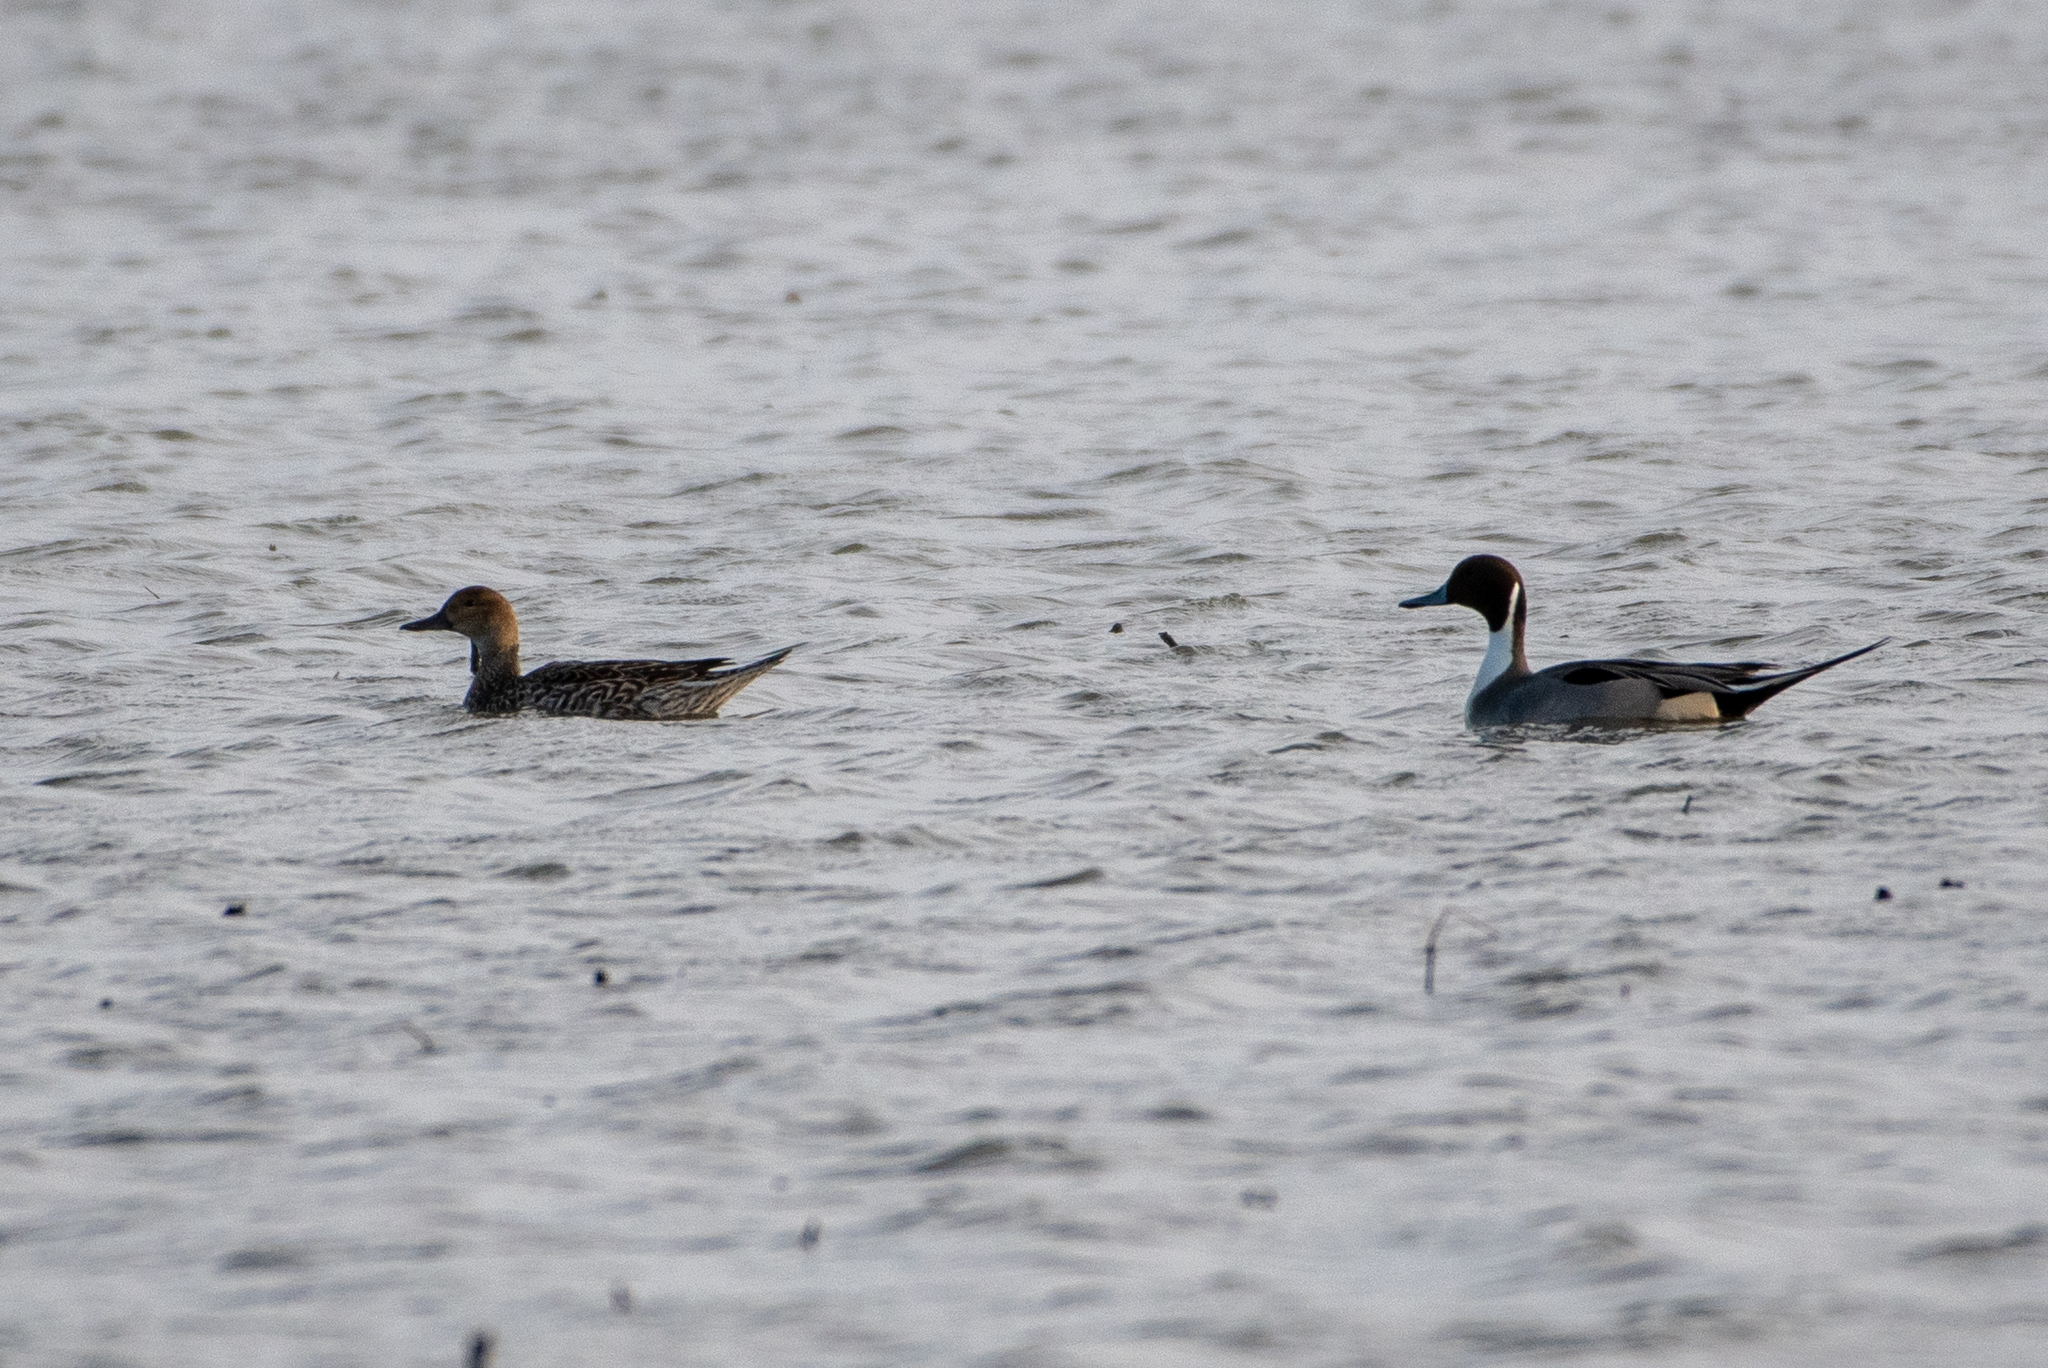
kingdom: Animalia
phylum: Chordata
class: Aves
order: Anseriformes
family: Anatidae
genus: Anas
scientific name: Anas acuta
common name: Northern pintail
